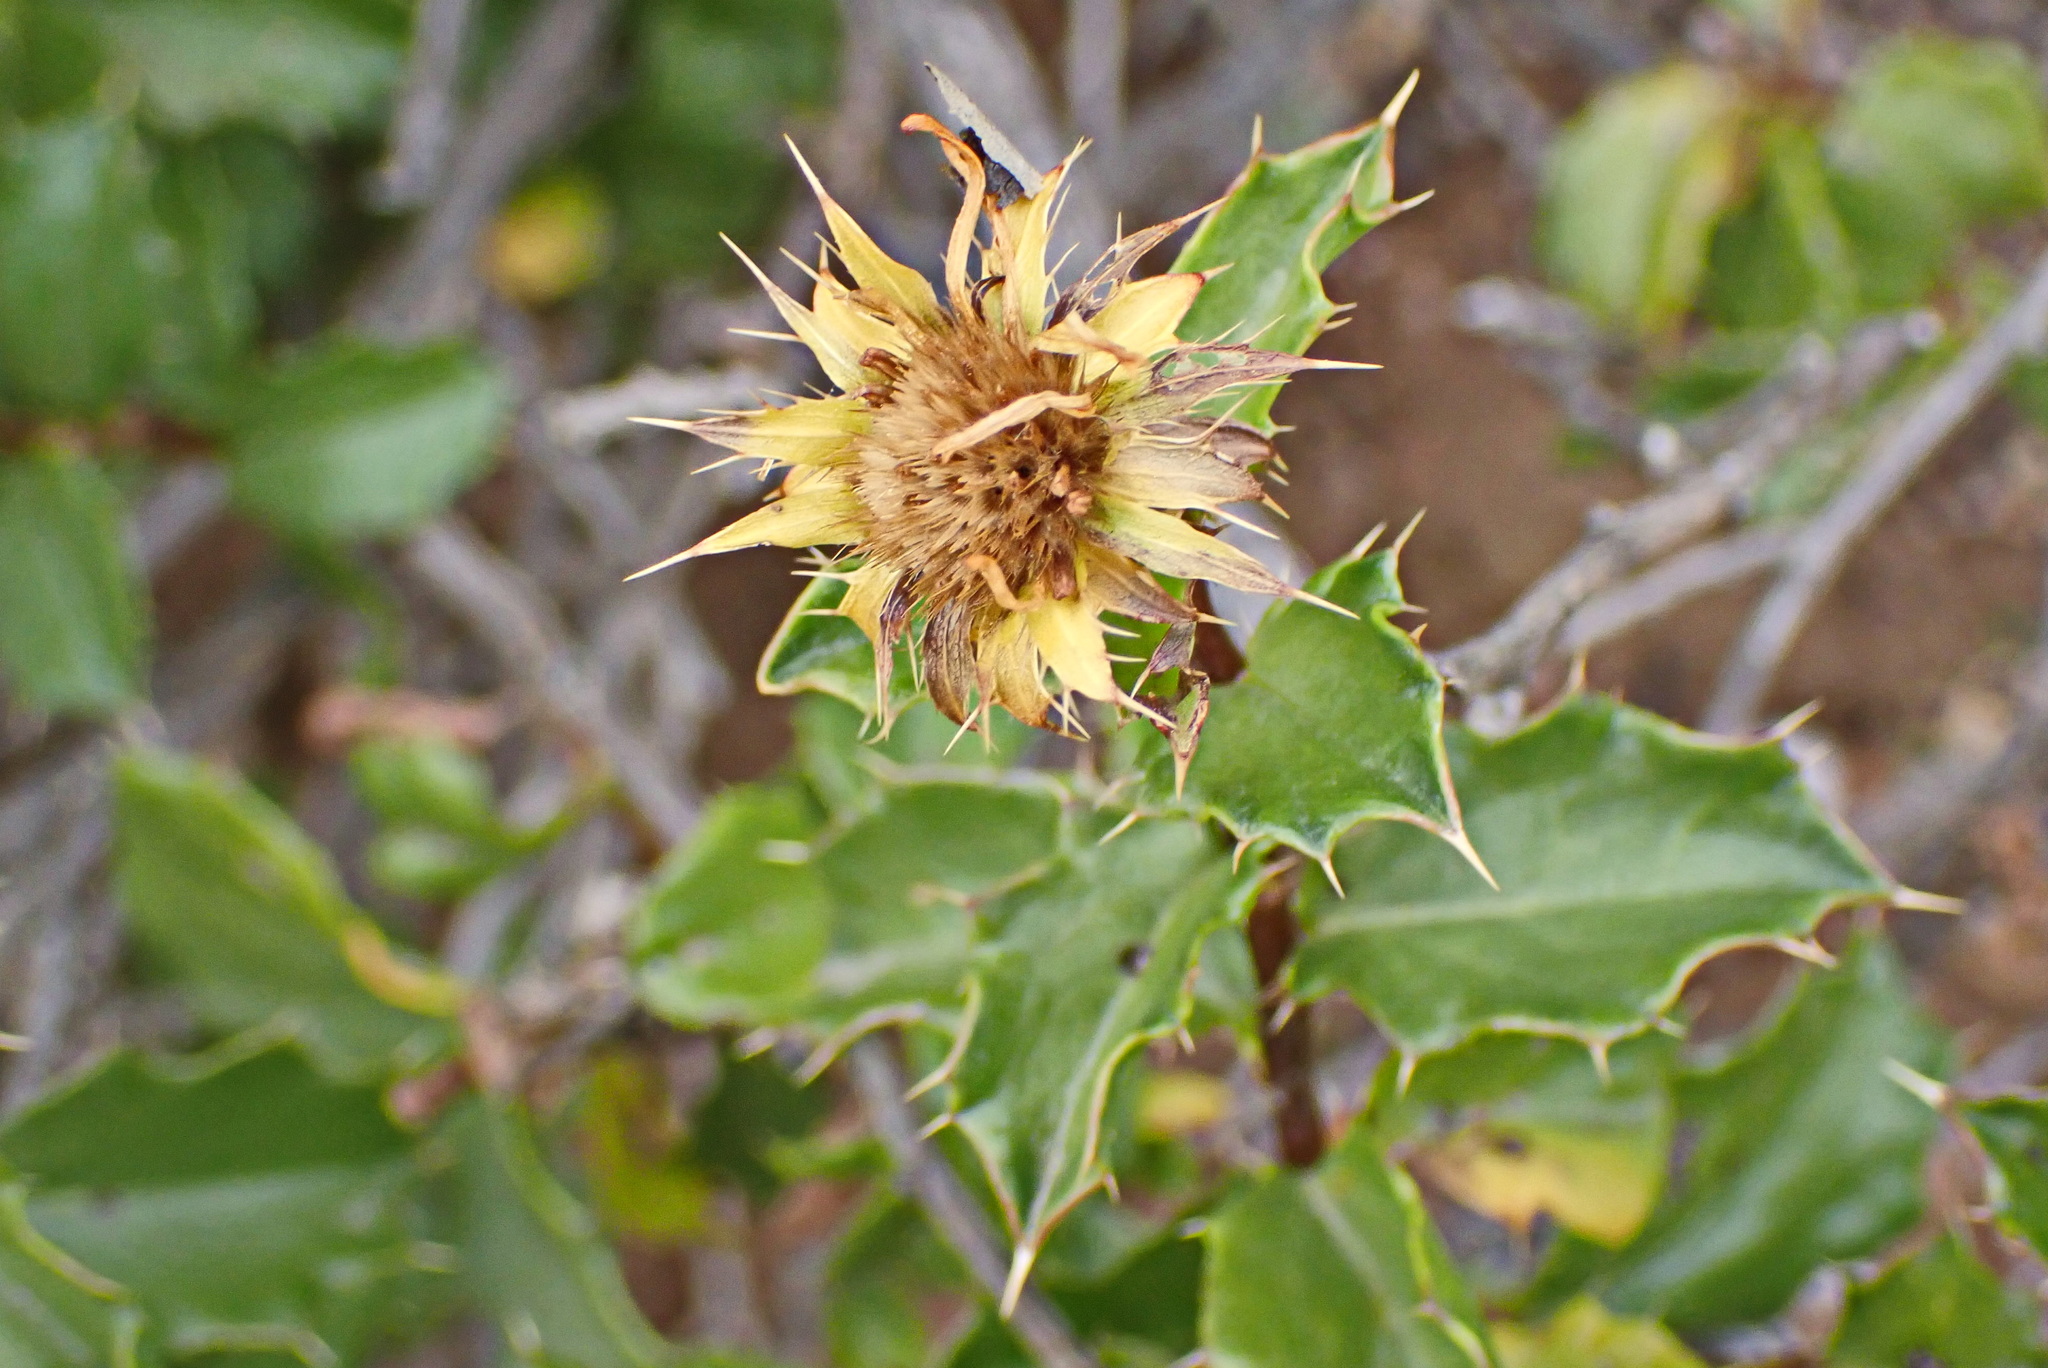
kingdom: Plantae
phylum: Tracheophyta
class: Magnoliopsida
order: Asterales
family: Asteraceae
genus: Berkheya
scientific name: Berkheya spinosa
